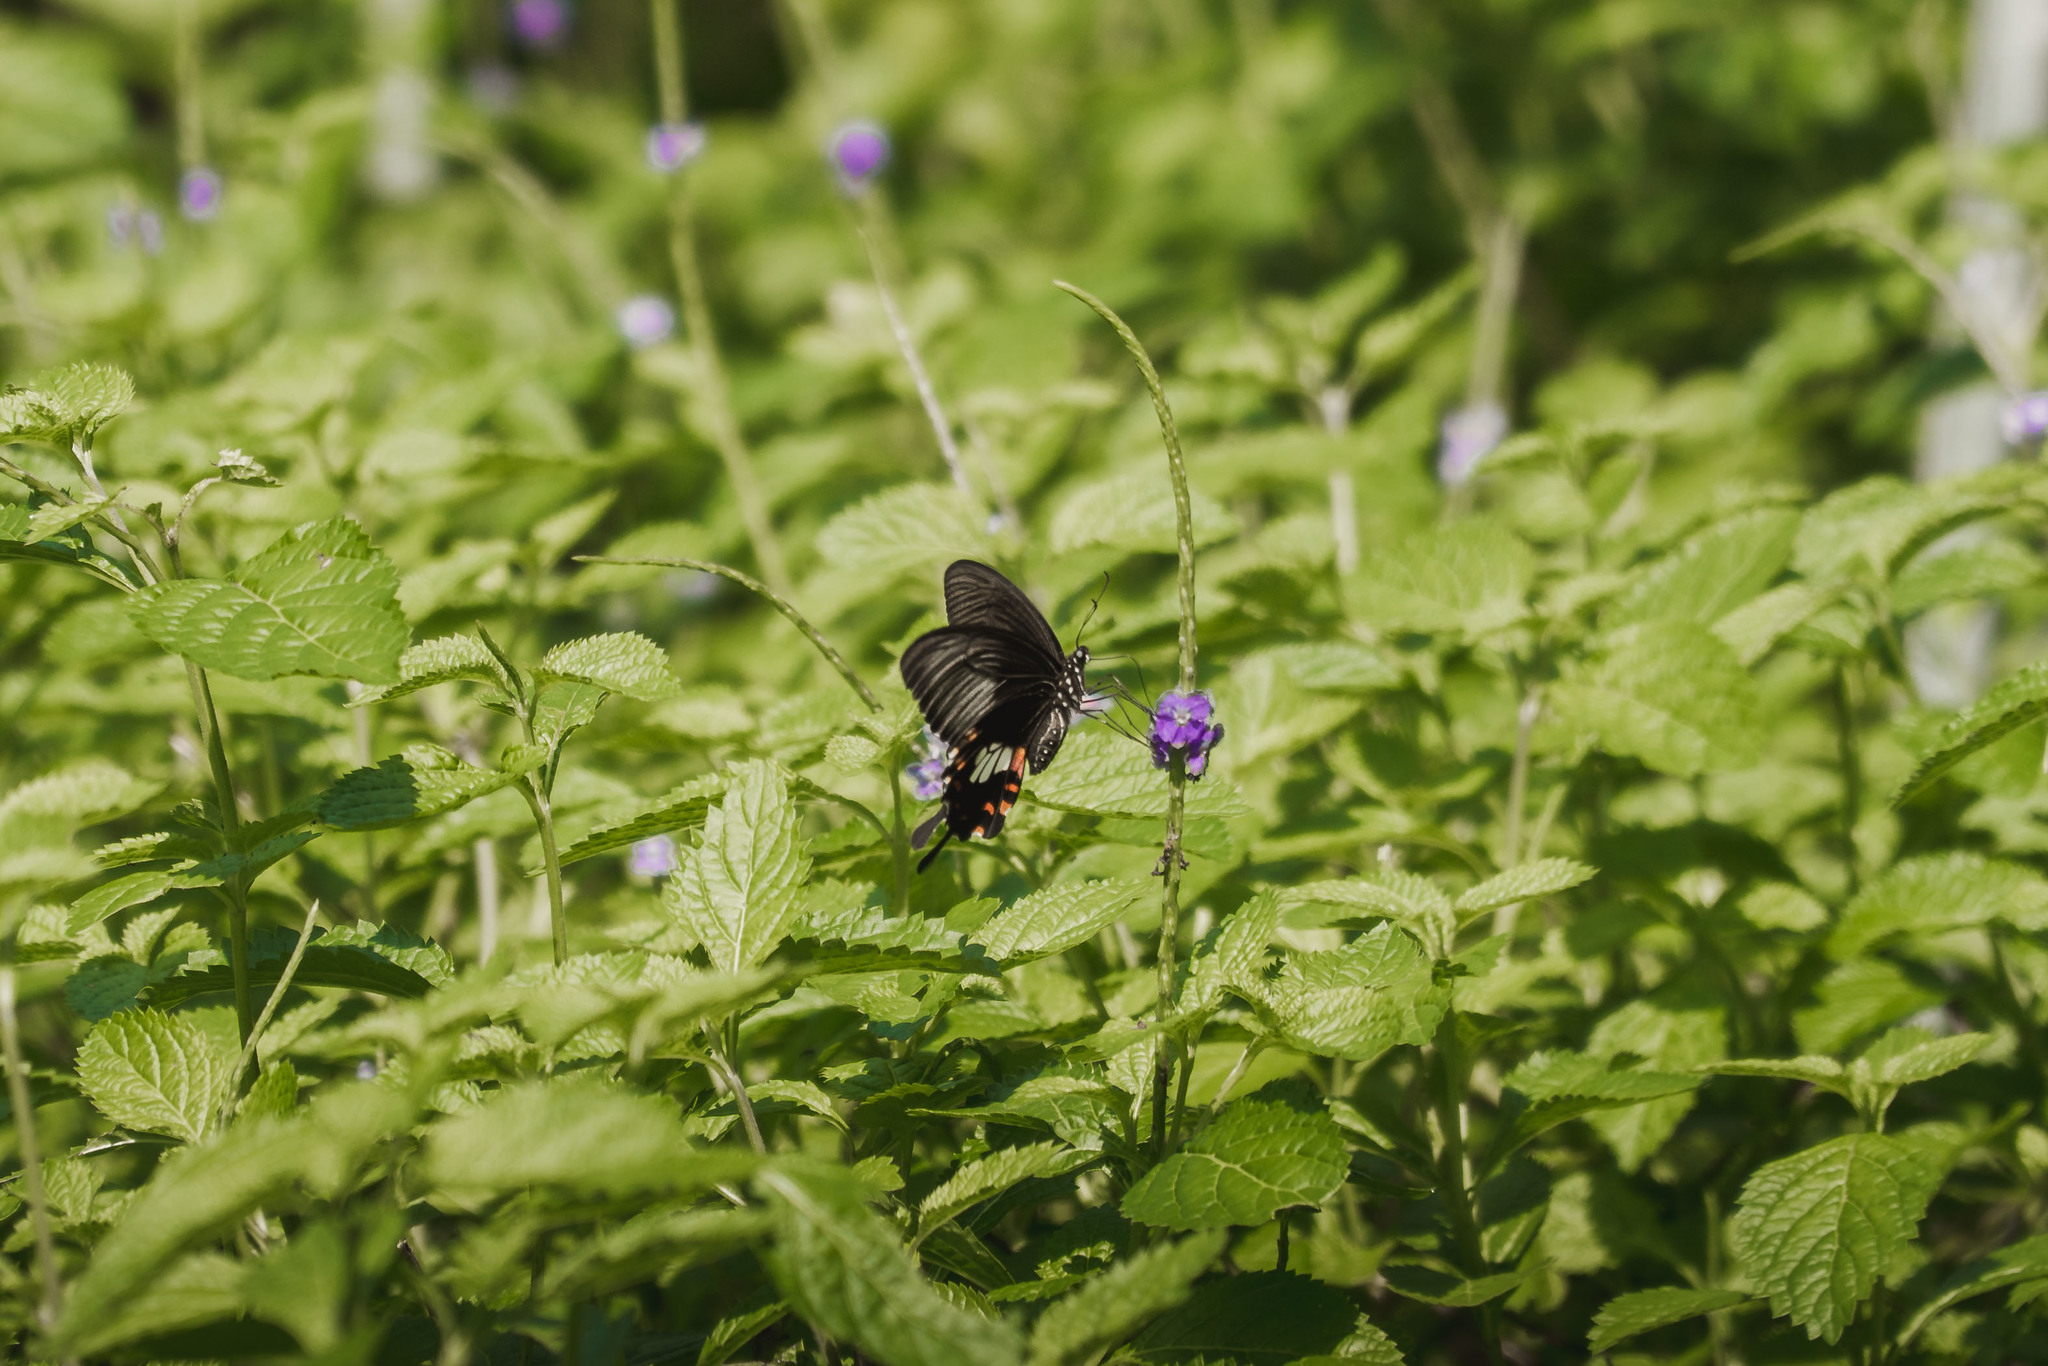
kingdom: Animalia
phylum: Arthropoda
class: Insecta
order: Lepidoptera
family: Papilionidae
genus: Papilio
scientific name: Papilio polytes
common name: Common mormon
